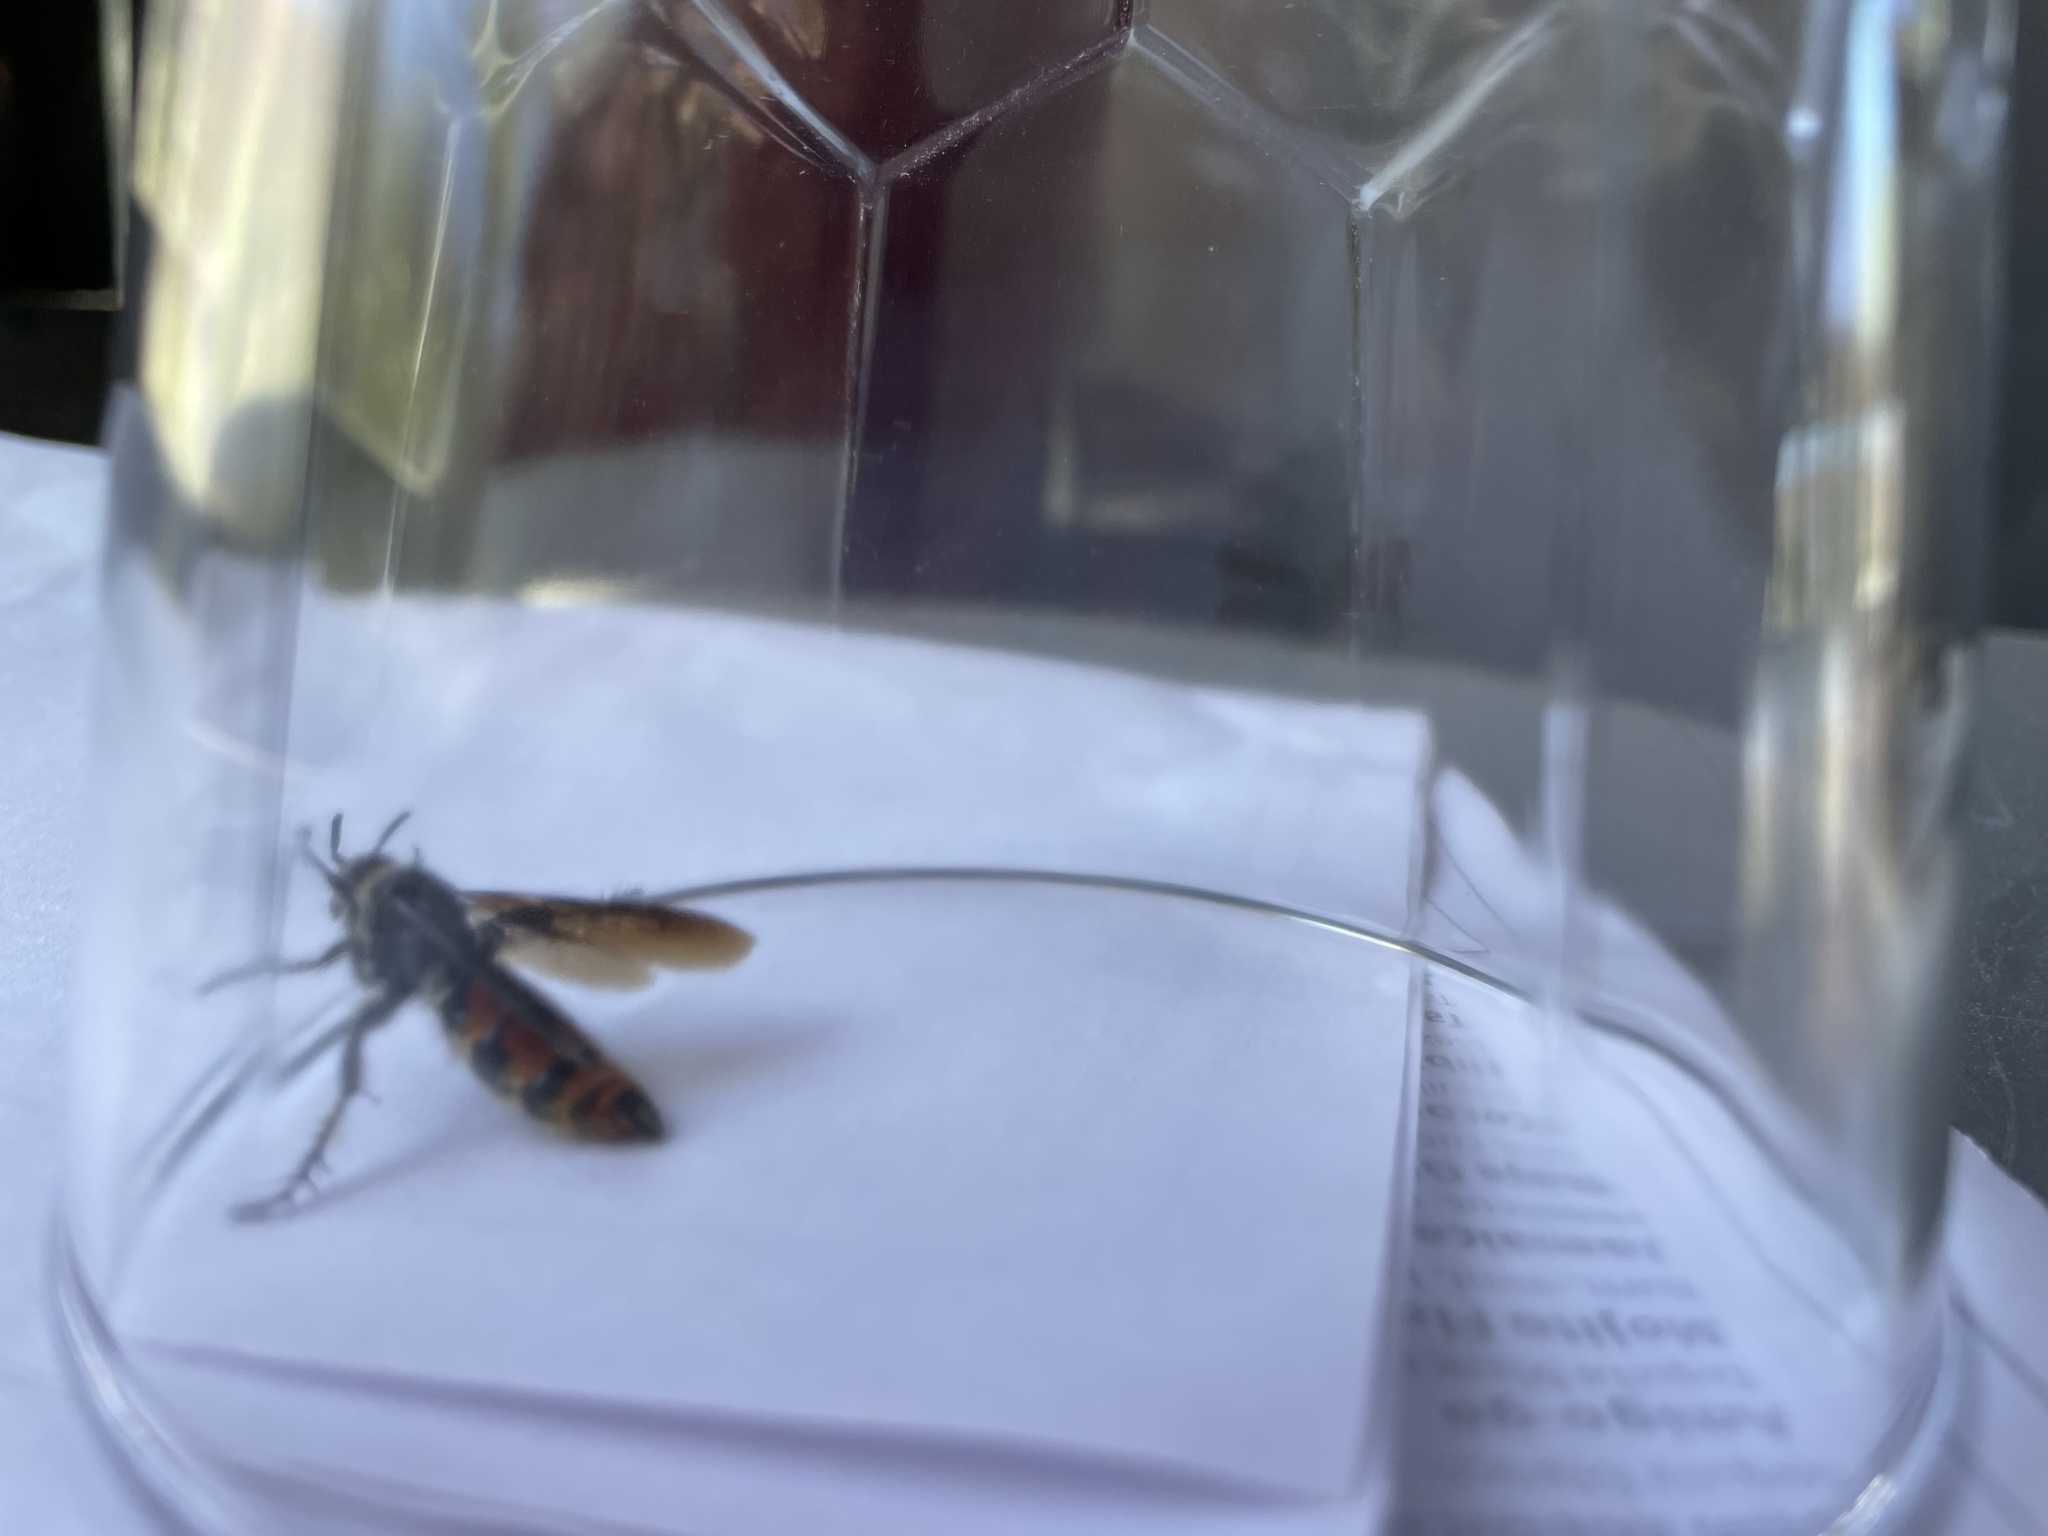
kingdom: Animalia
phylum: Arthropoda
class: Insecta
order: Hymenoptera
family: Scoliidae
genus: Dielis
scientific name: Dielis tolteca
